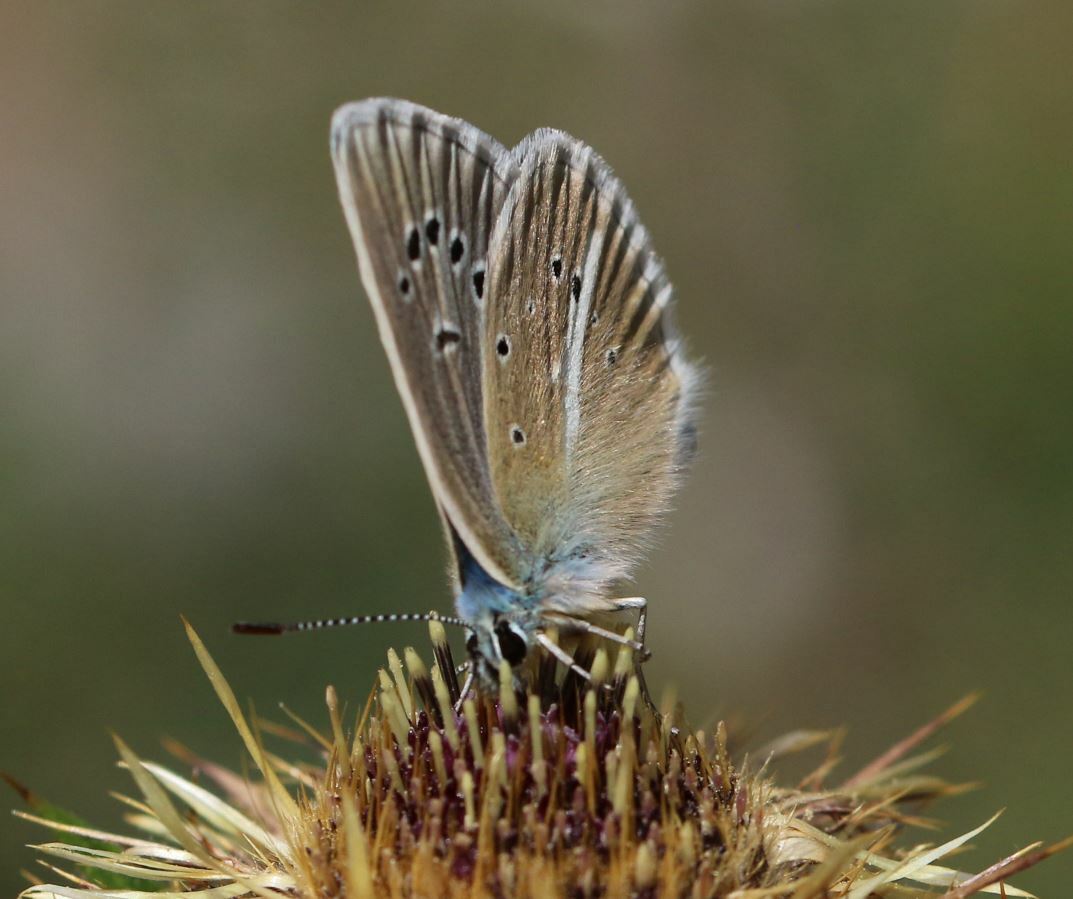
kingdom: Animalia
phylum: Arthropoda
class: Insecta
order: Lepidoptera
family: Lycaenidae
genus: Agrodiaetus
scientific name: Agrodiaetus damon
